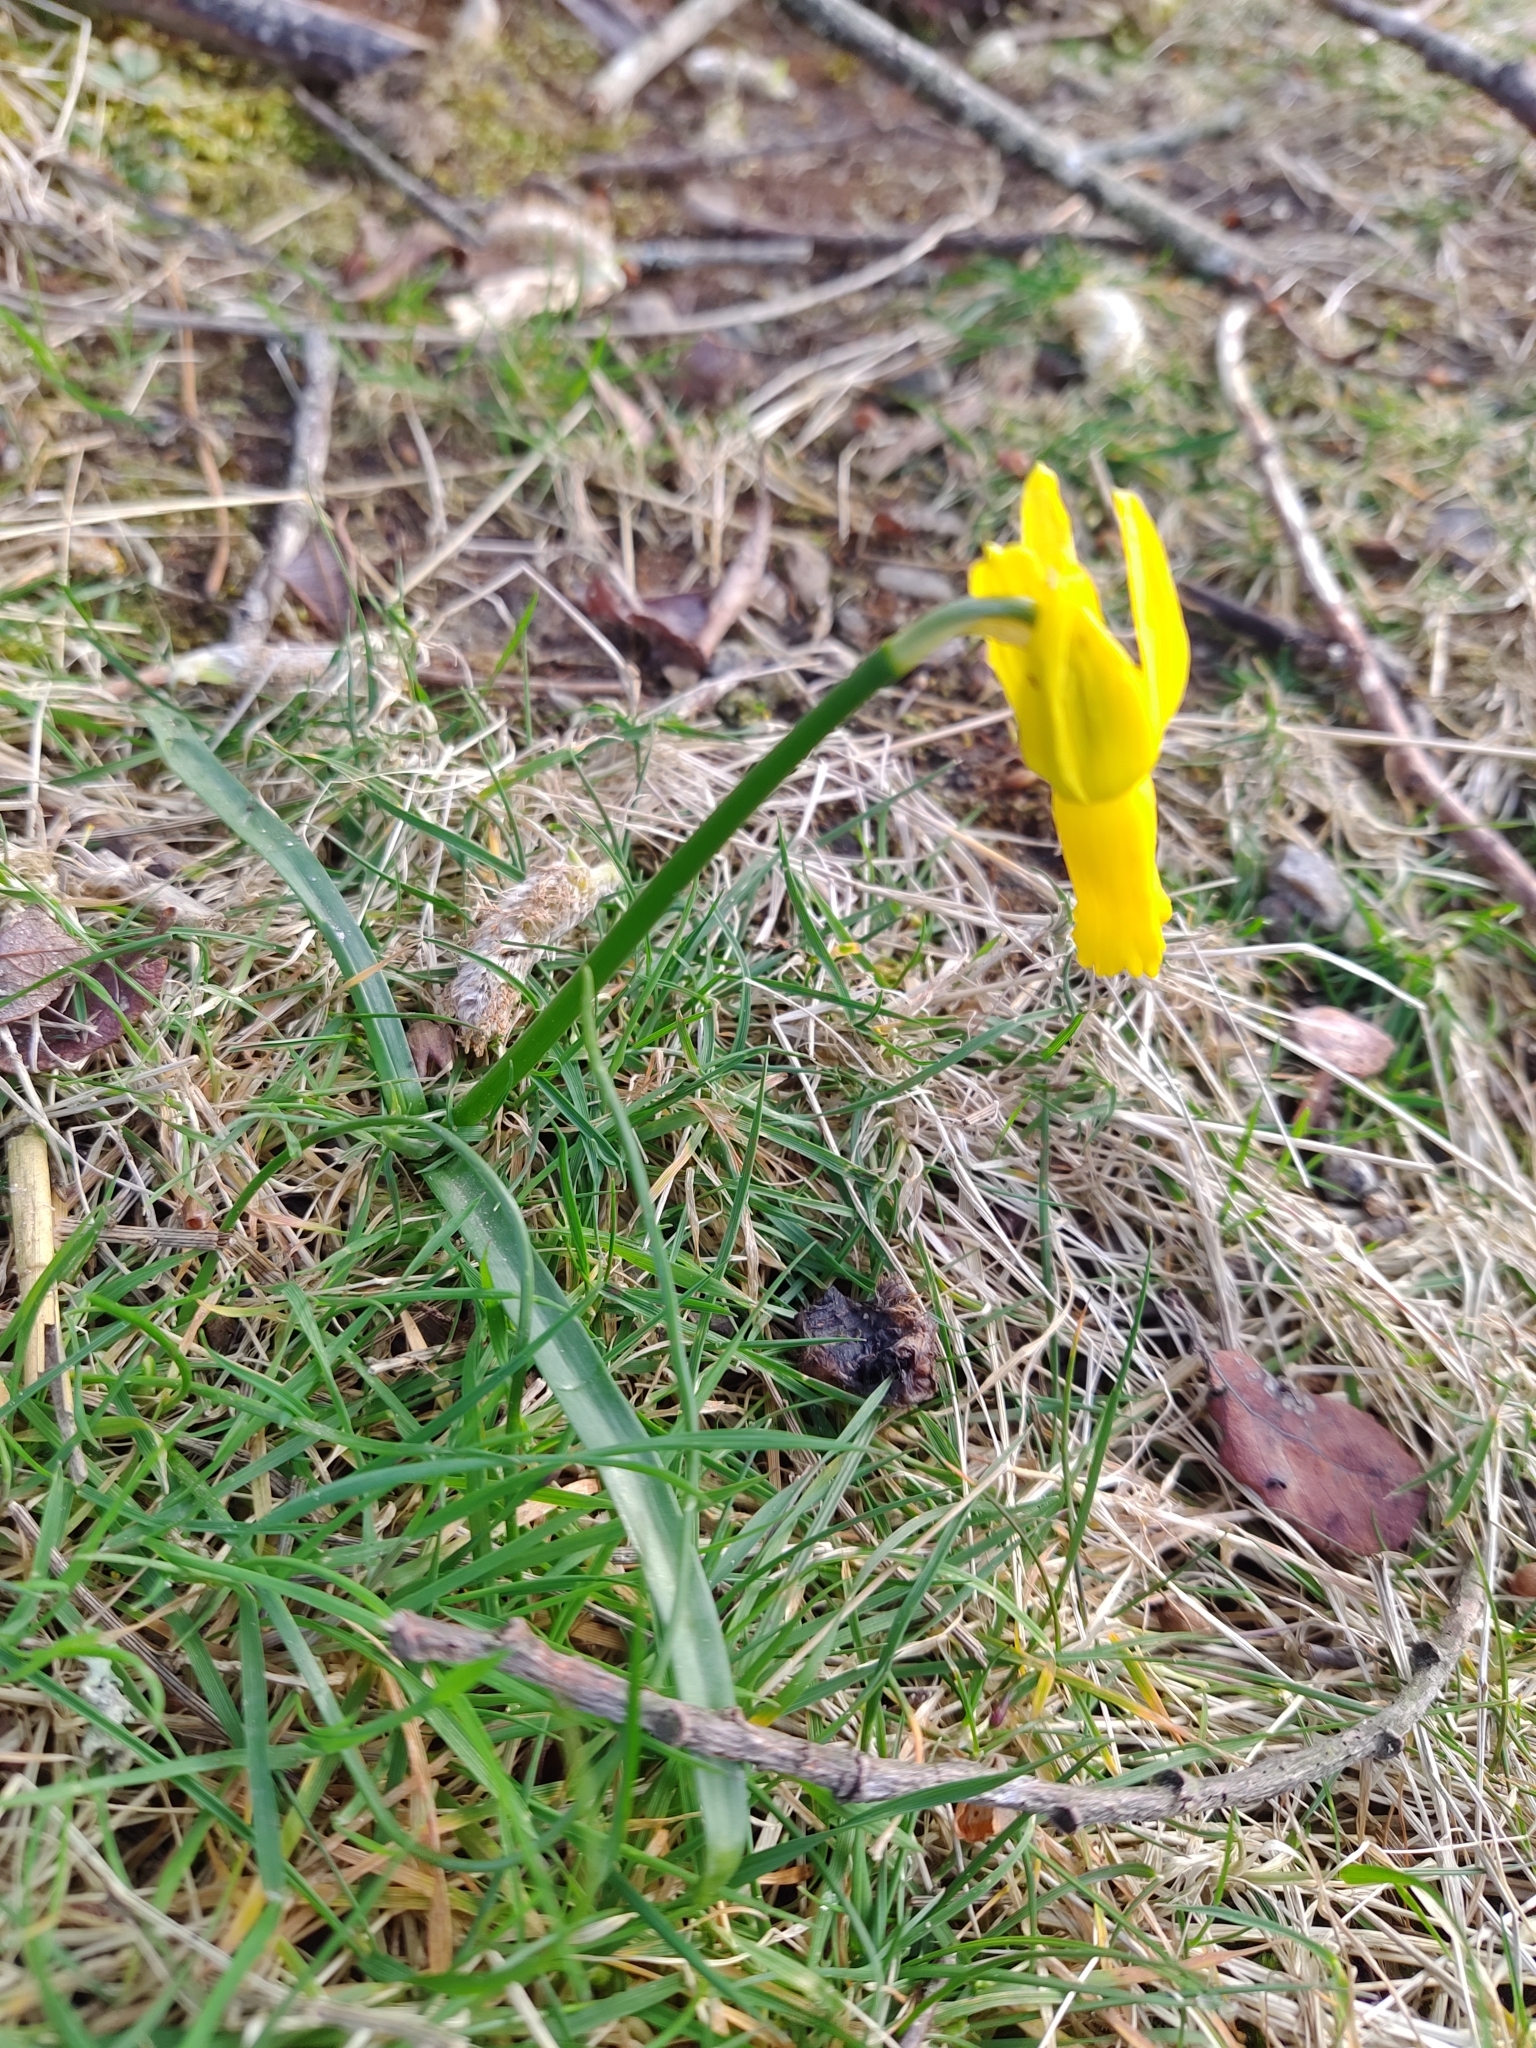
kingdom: Plantae
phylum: Tracheophyta
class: Liliopsida
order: Asparagales
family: Amaryllidaceae
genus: Narcissus
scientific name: Narcissus cyclamineus
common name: Cyclamen-flowered daffodil
